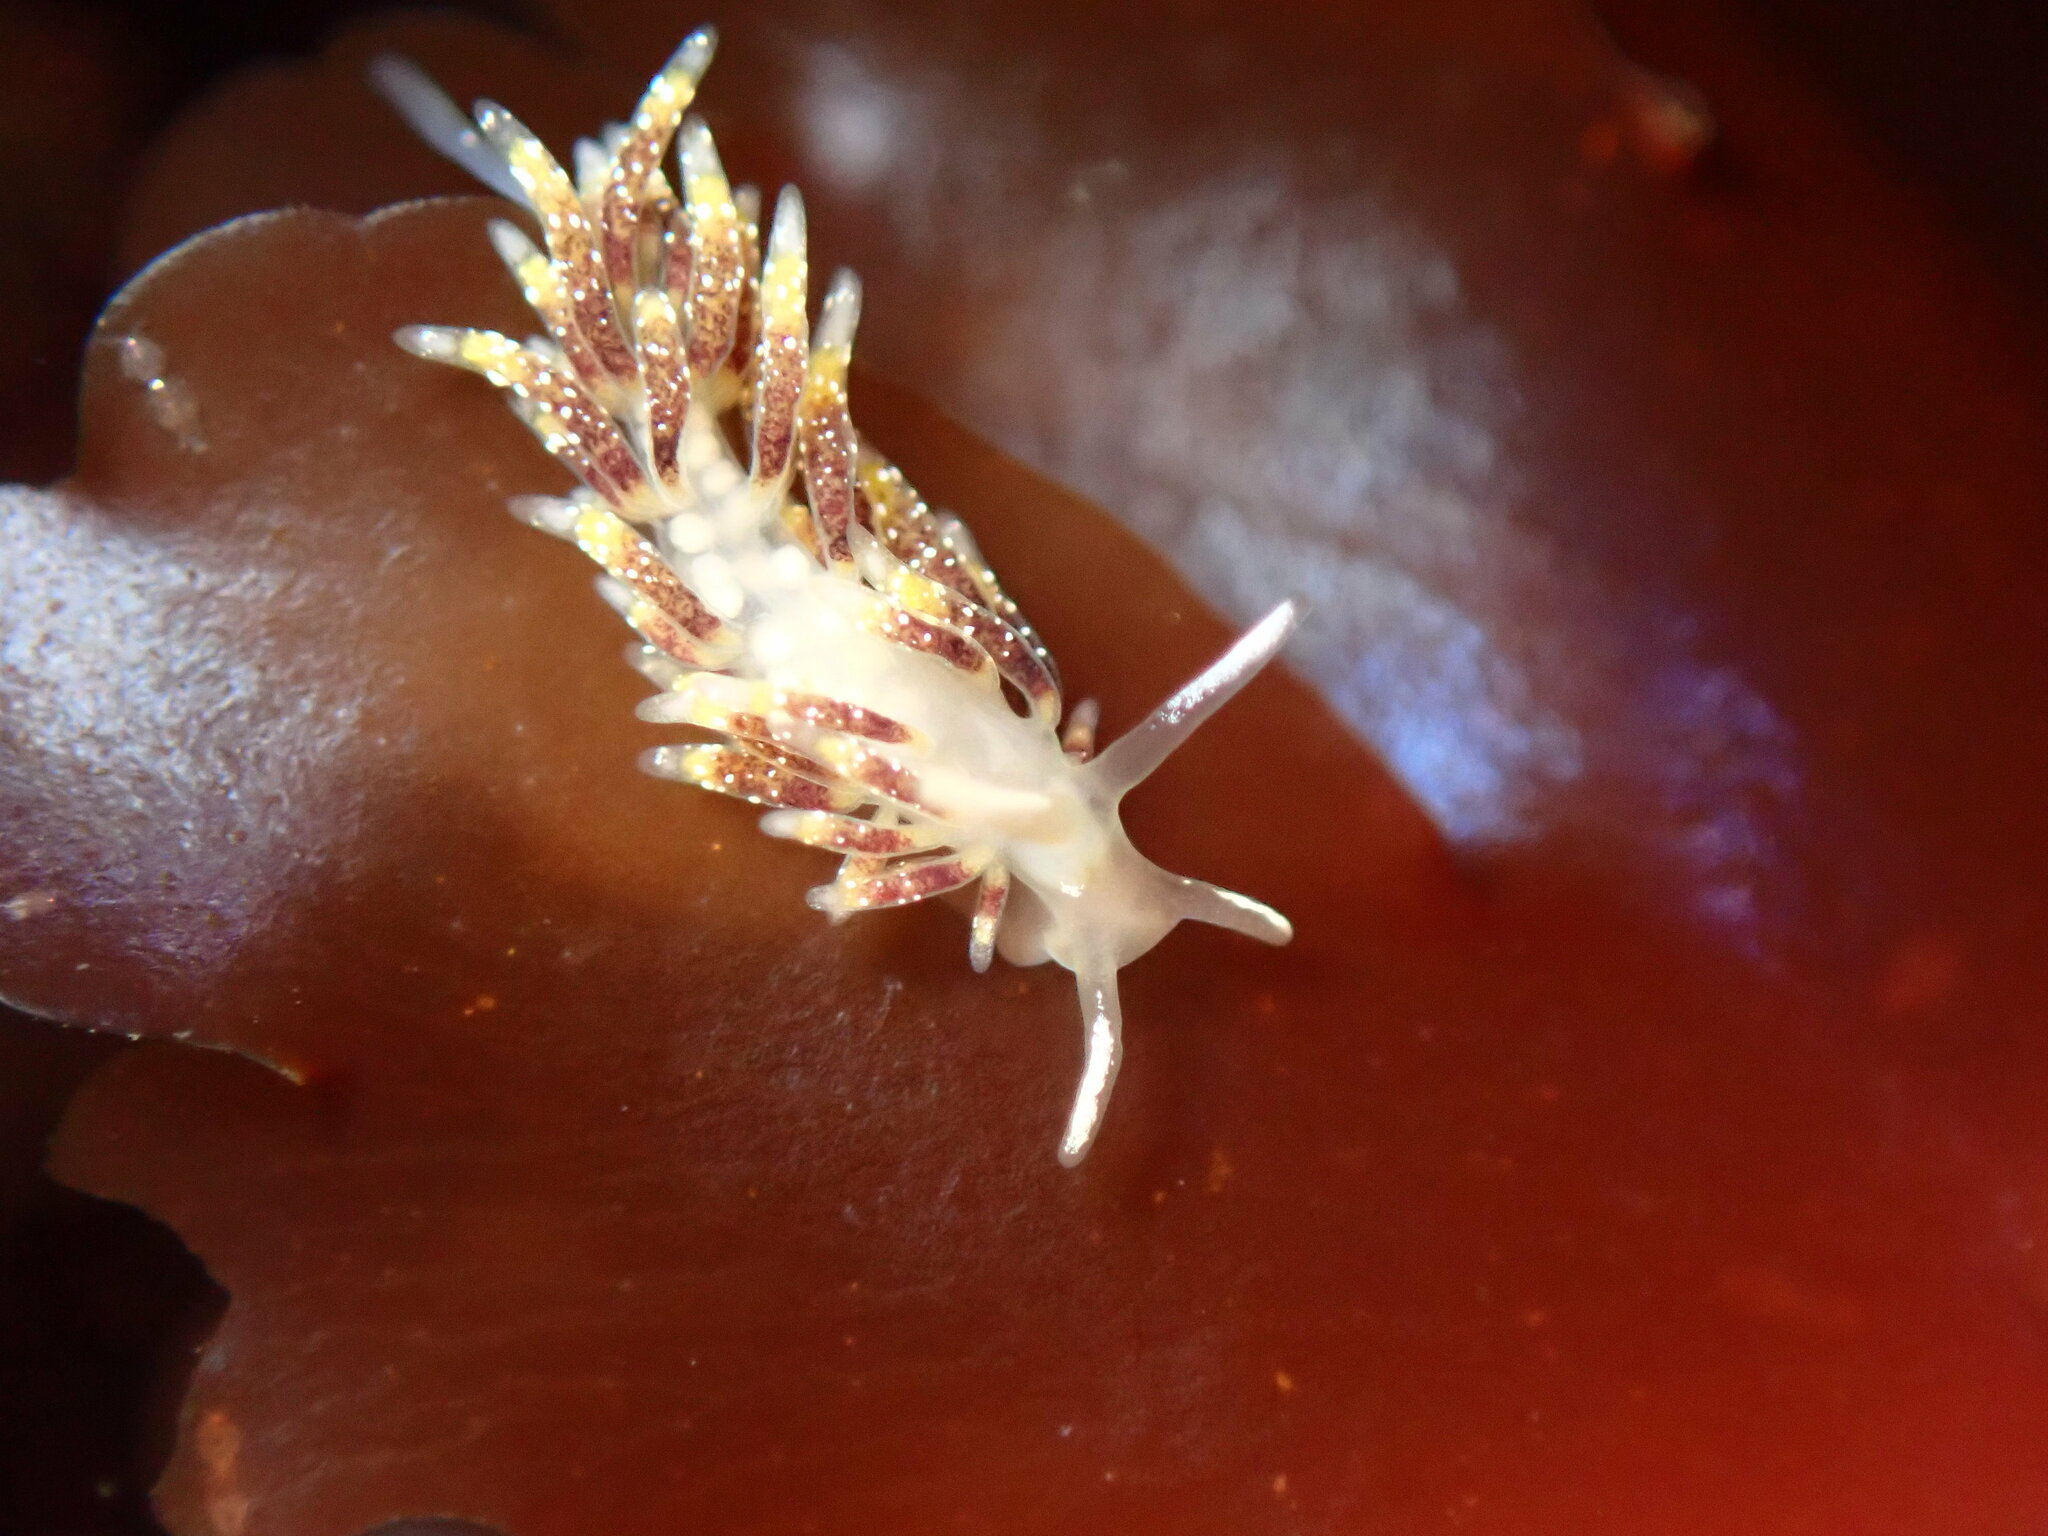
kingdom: Animalia
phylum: Mollusca
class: Gastropoda
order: Nudibranchia
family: Trinchesiidae
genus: Zelentia
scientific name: Zelentia fulgens
